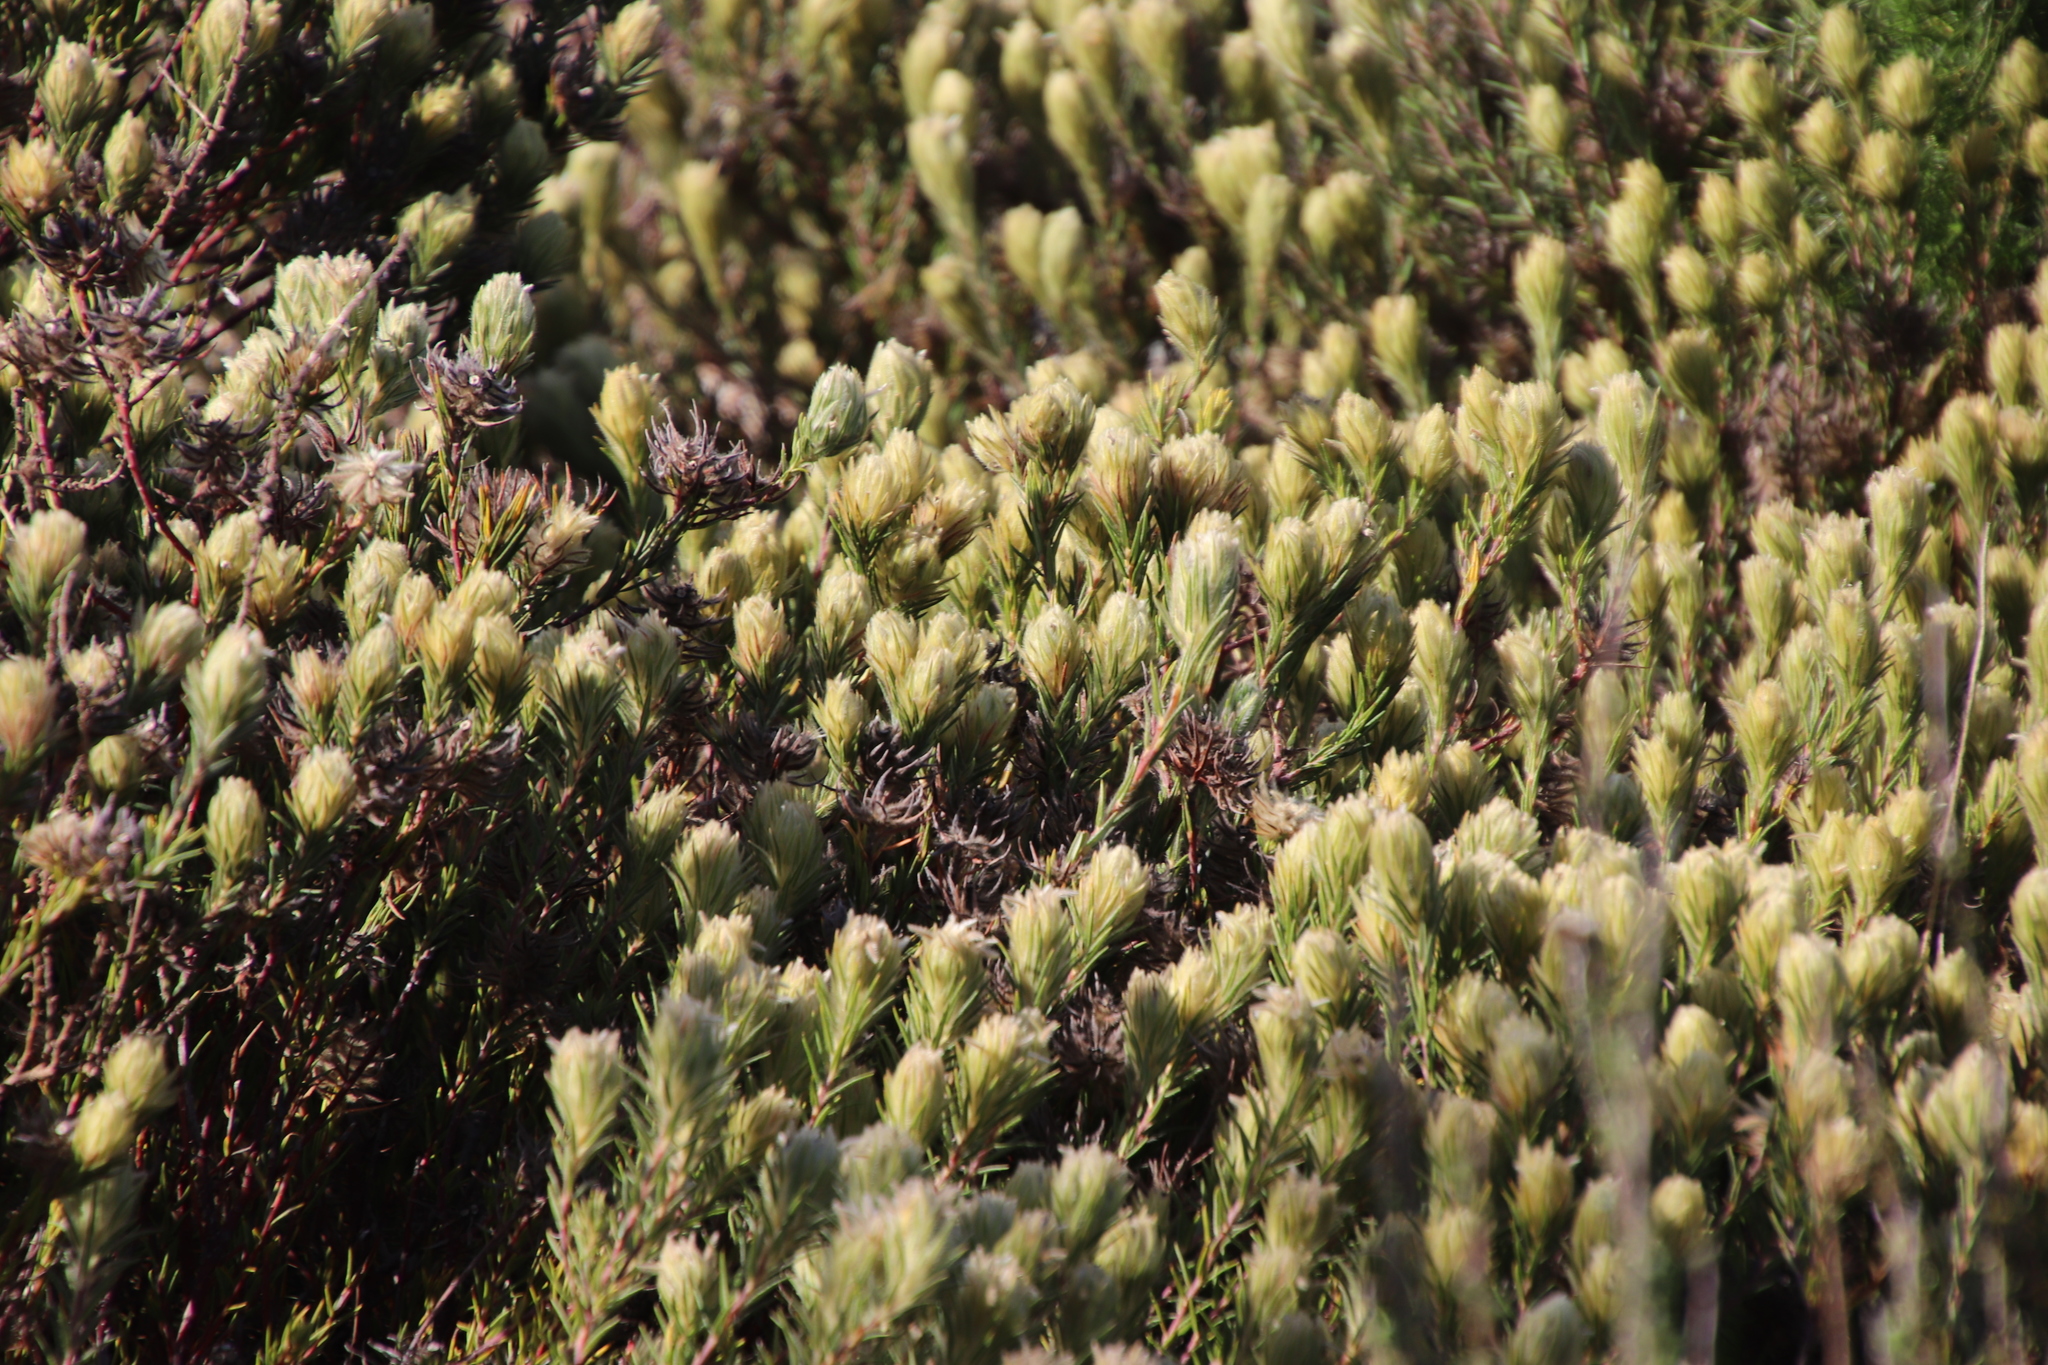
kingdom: Plantae
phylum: Tracheophyta
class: Magnoliopsida
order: Rosales
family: Rhamnaceae
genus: Phylica
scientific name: Phylica pubescens
